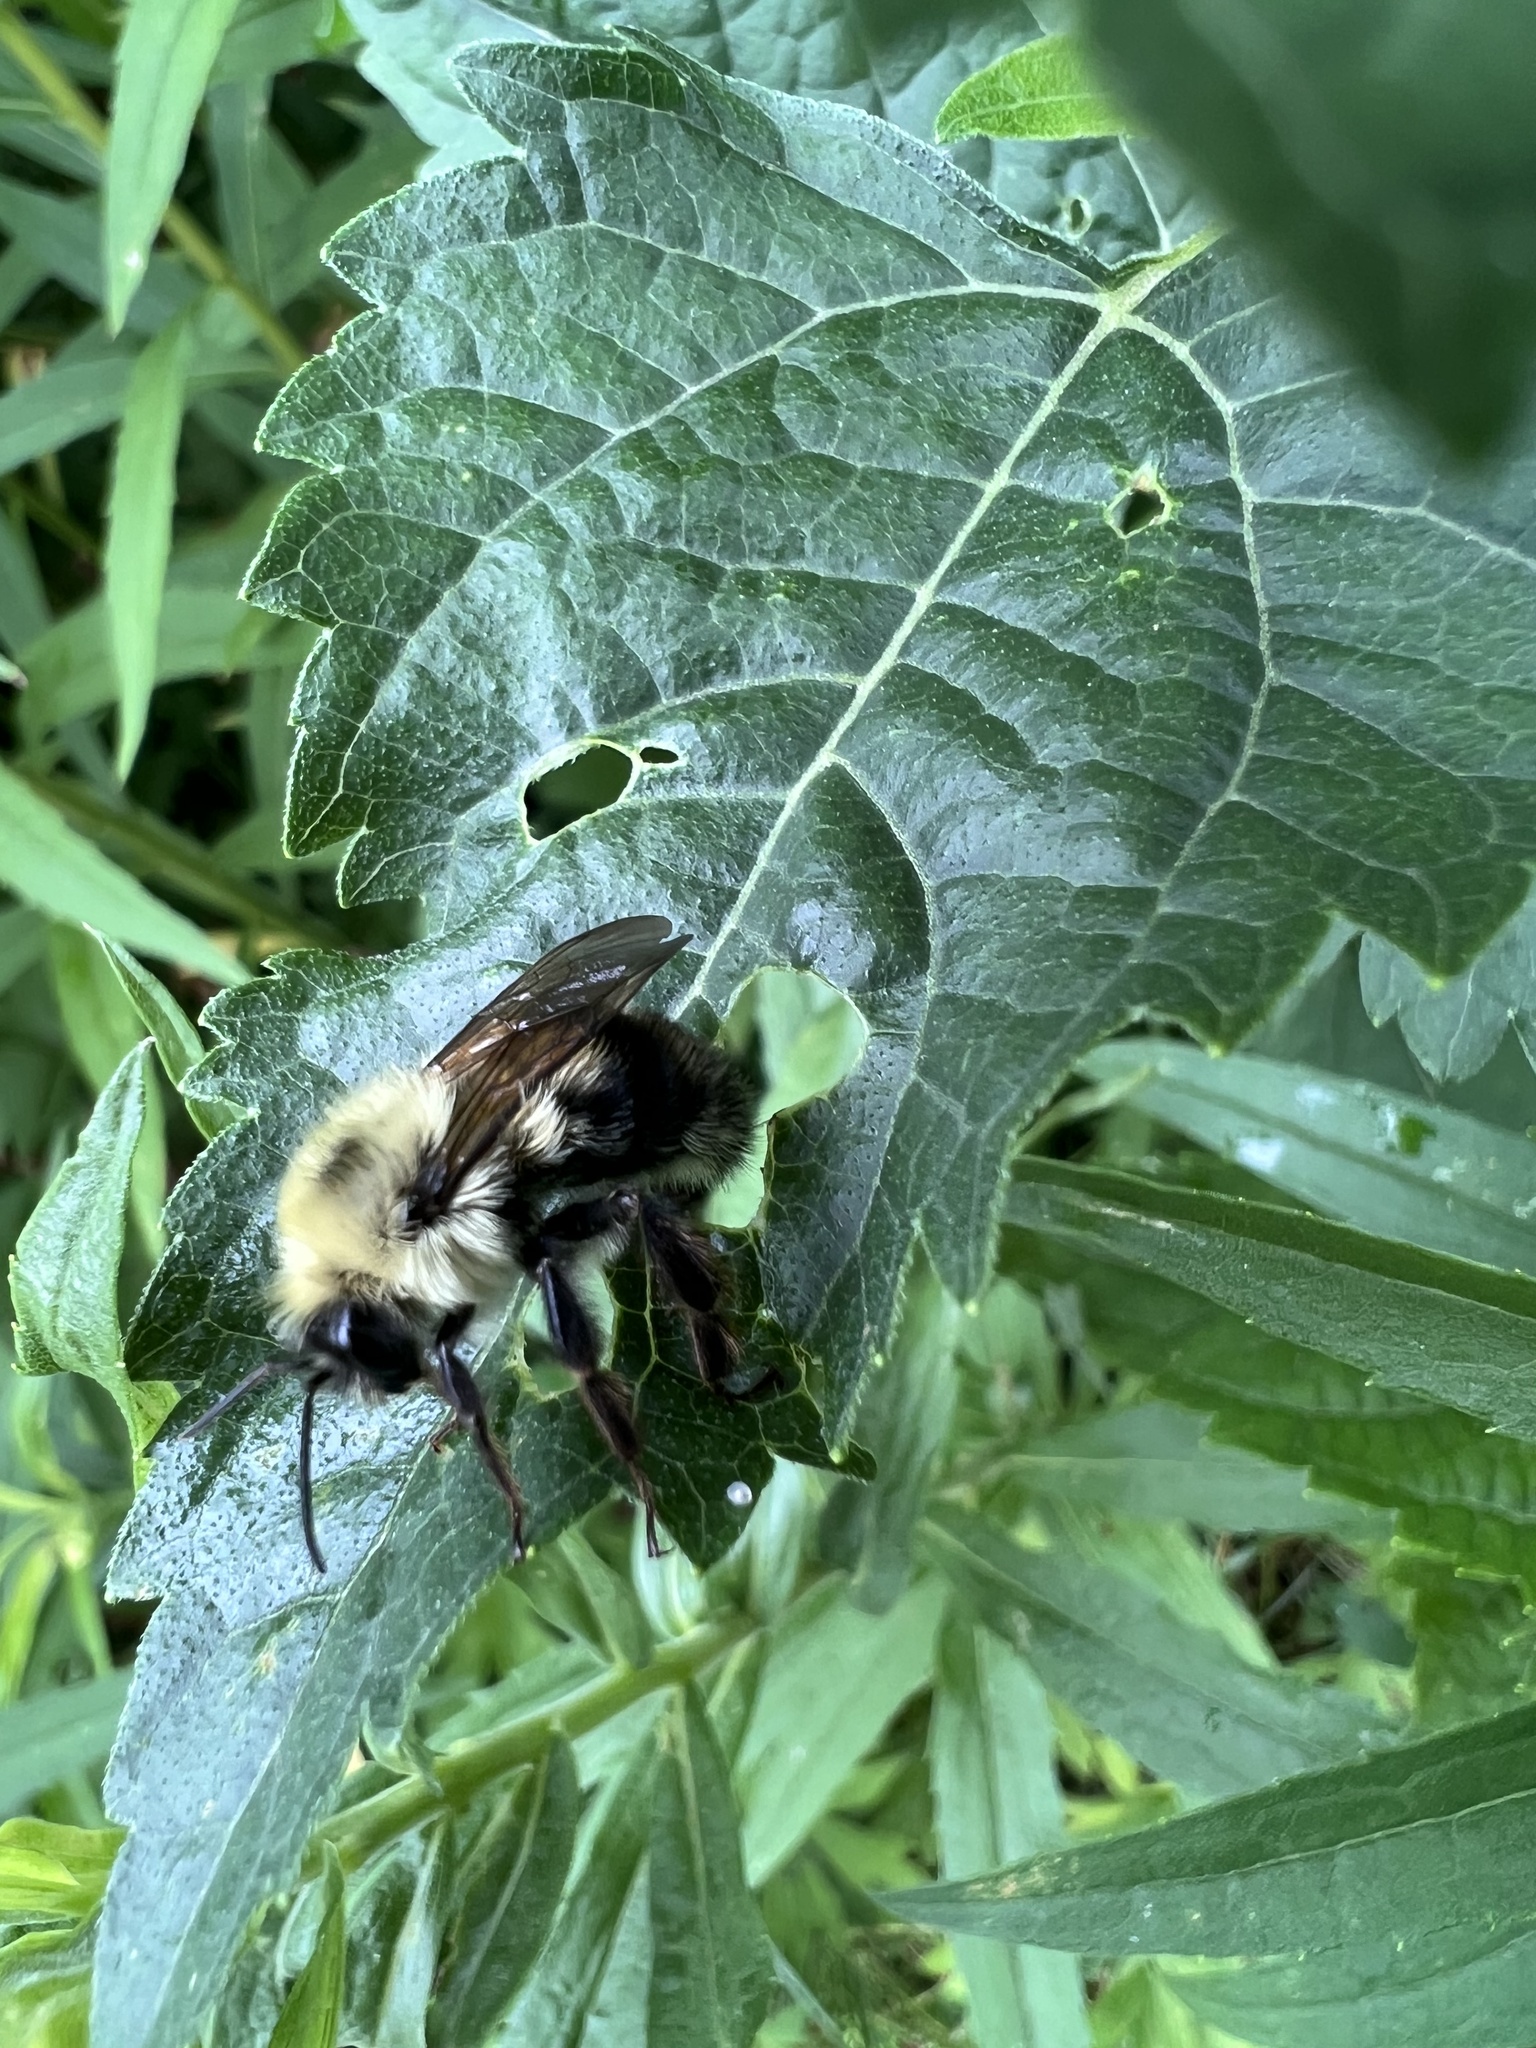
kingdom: Animalia
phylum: Arthropoda
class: Insecta
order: Hymenoptera
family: Apidae
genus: Bombus
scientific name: Bombus bimaculatus
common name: Two-spotted bumble bee
